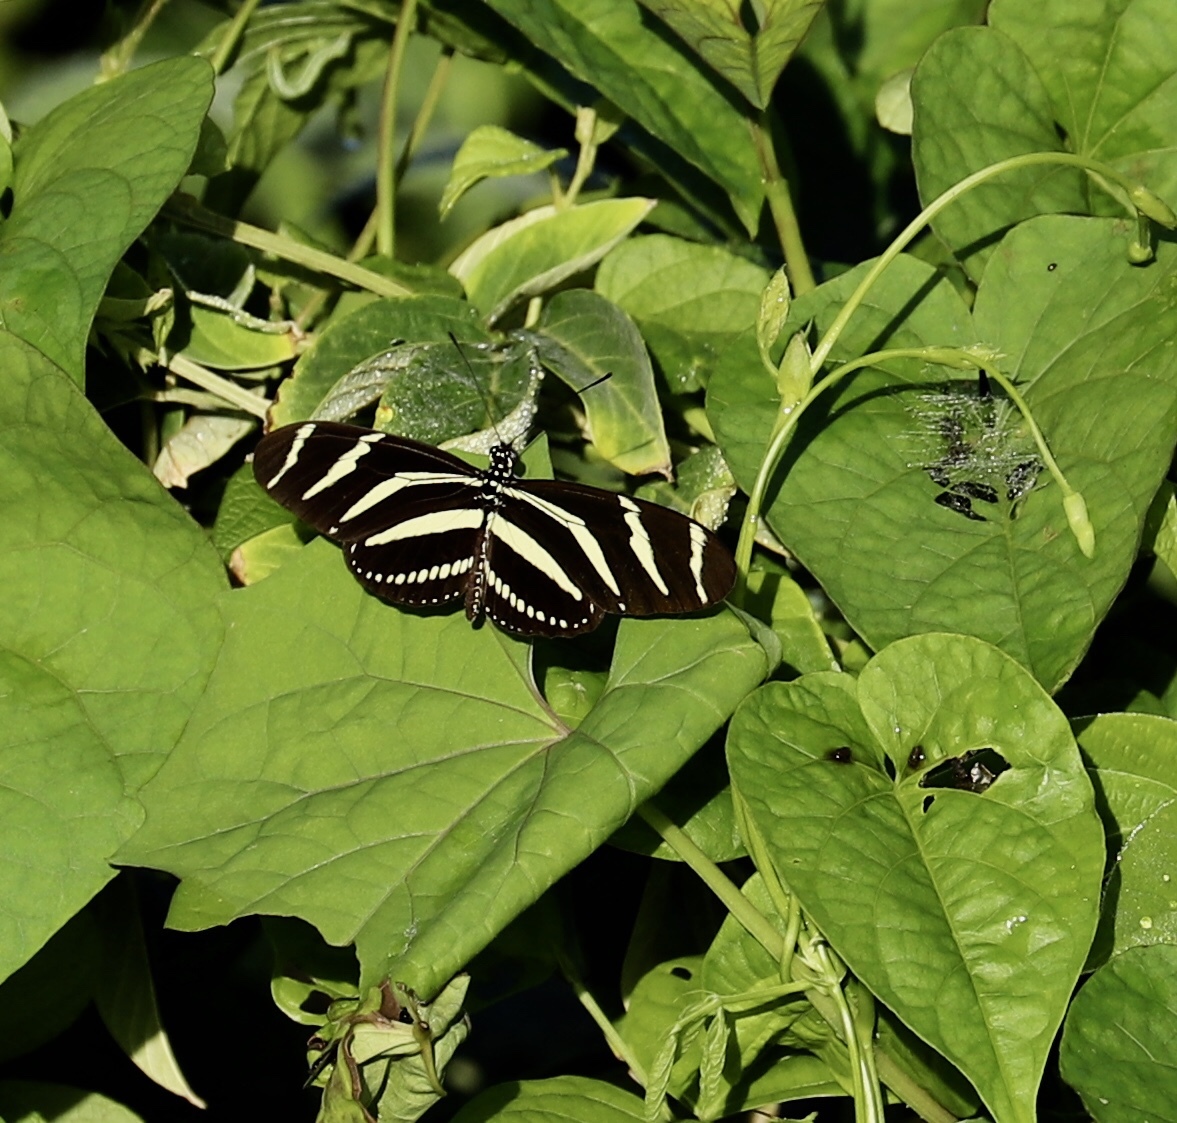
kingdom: Animalia
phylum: Arthropoda
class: Insecta
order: Lepidoptera
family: Nymphalidae
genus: Heliconius
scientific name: Heliconius charithonia
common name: Zebra long wing
